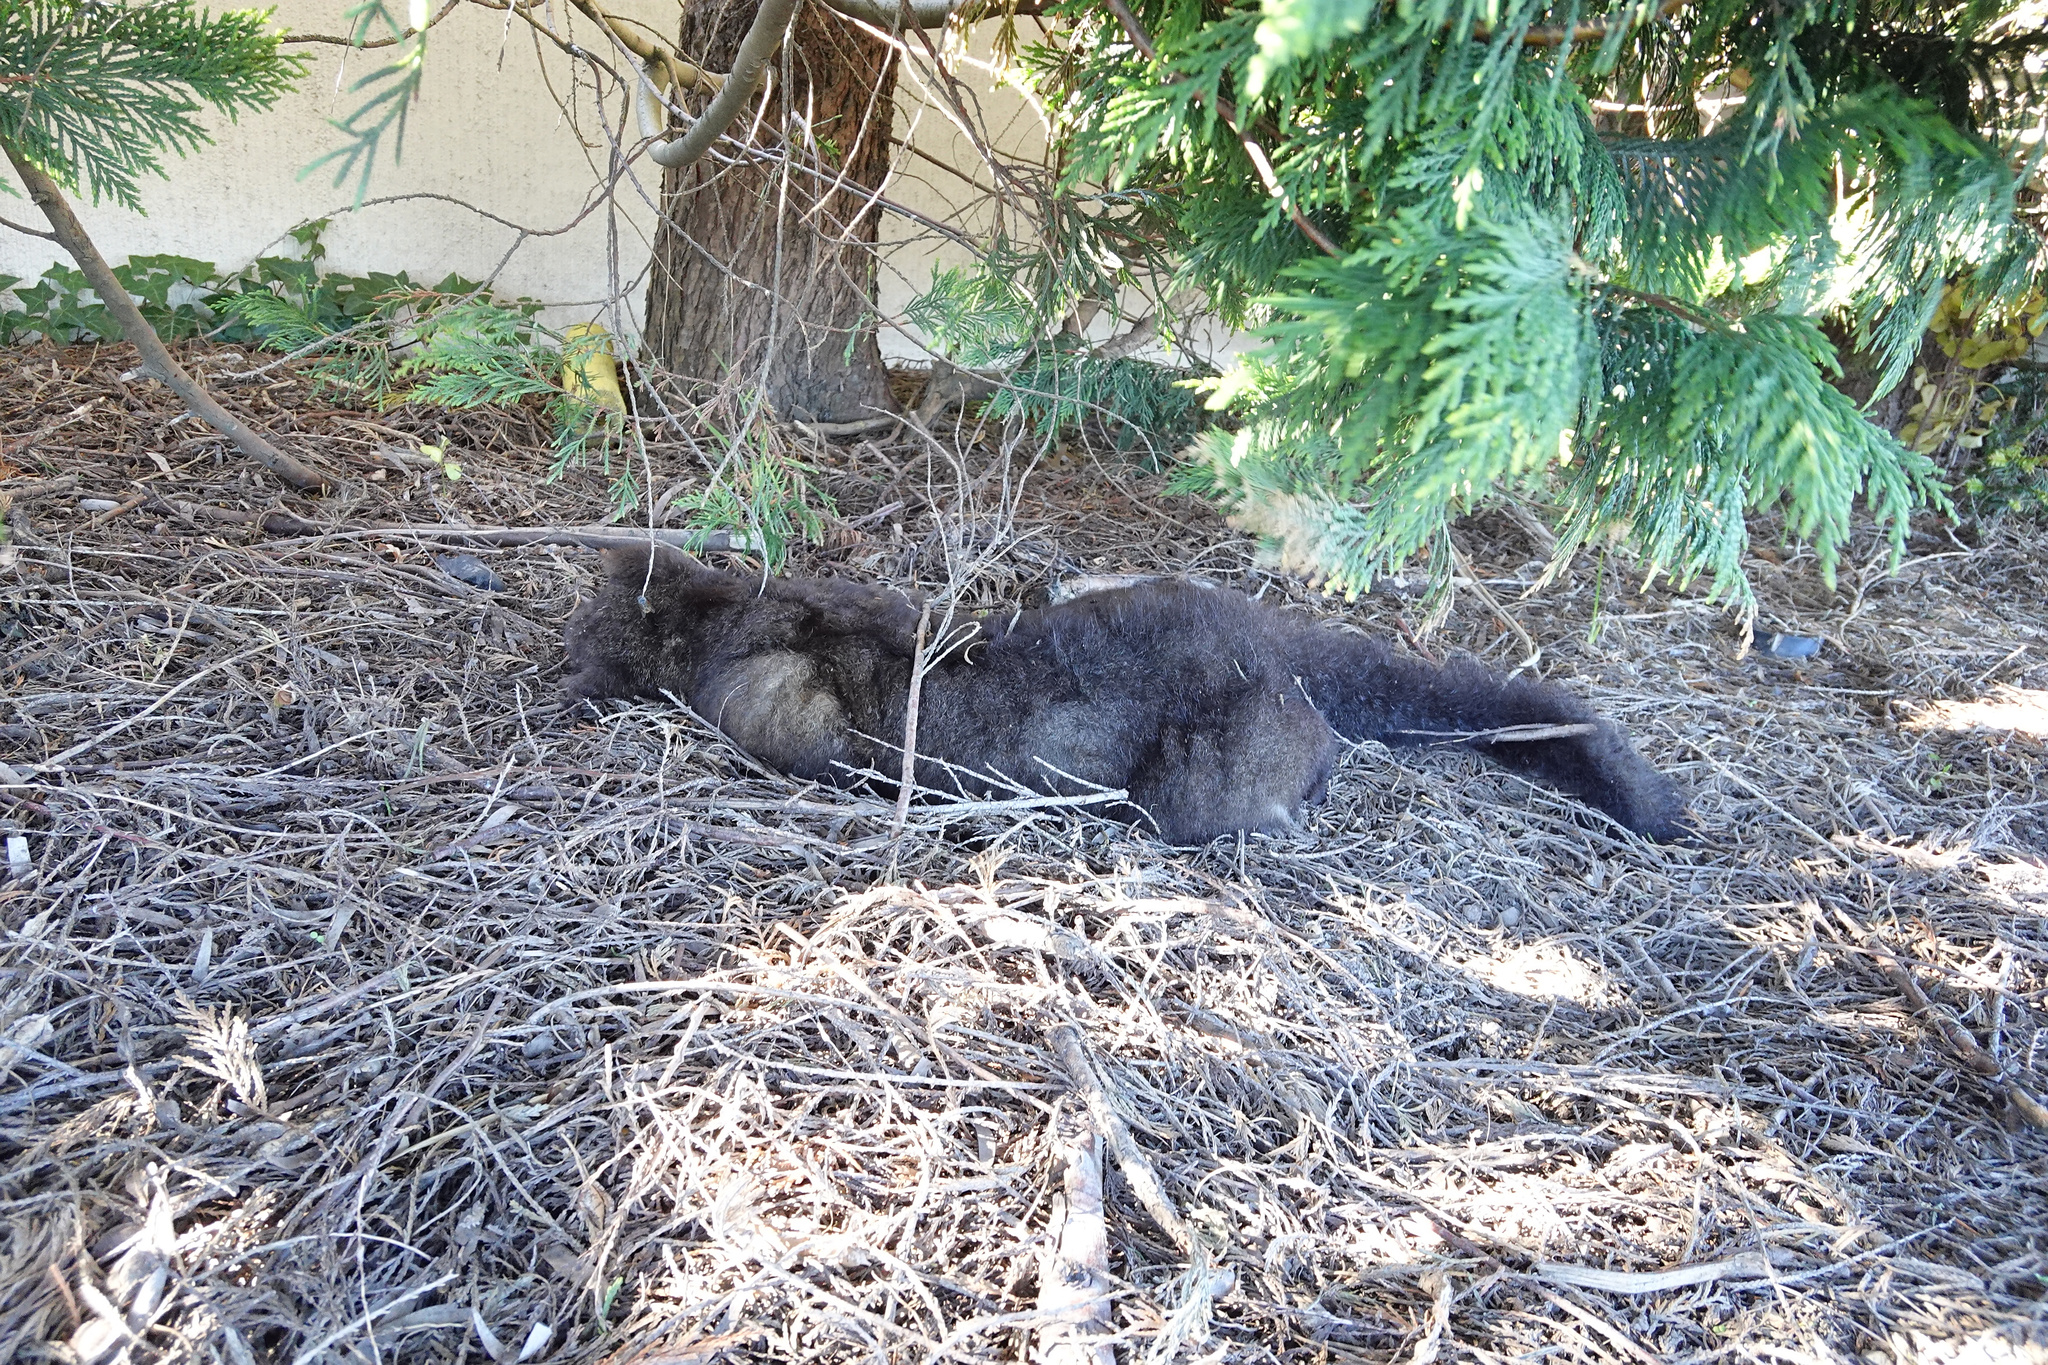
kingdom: Animalia
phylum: Chordata
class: Mammalia
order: Diprotodontia
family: Phalangeridae
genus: Trichosurus
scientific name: Trichosurus vulpecula
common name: Common brushtail
